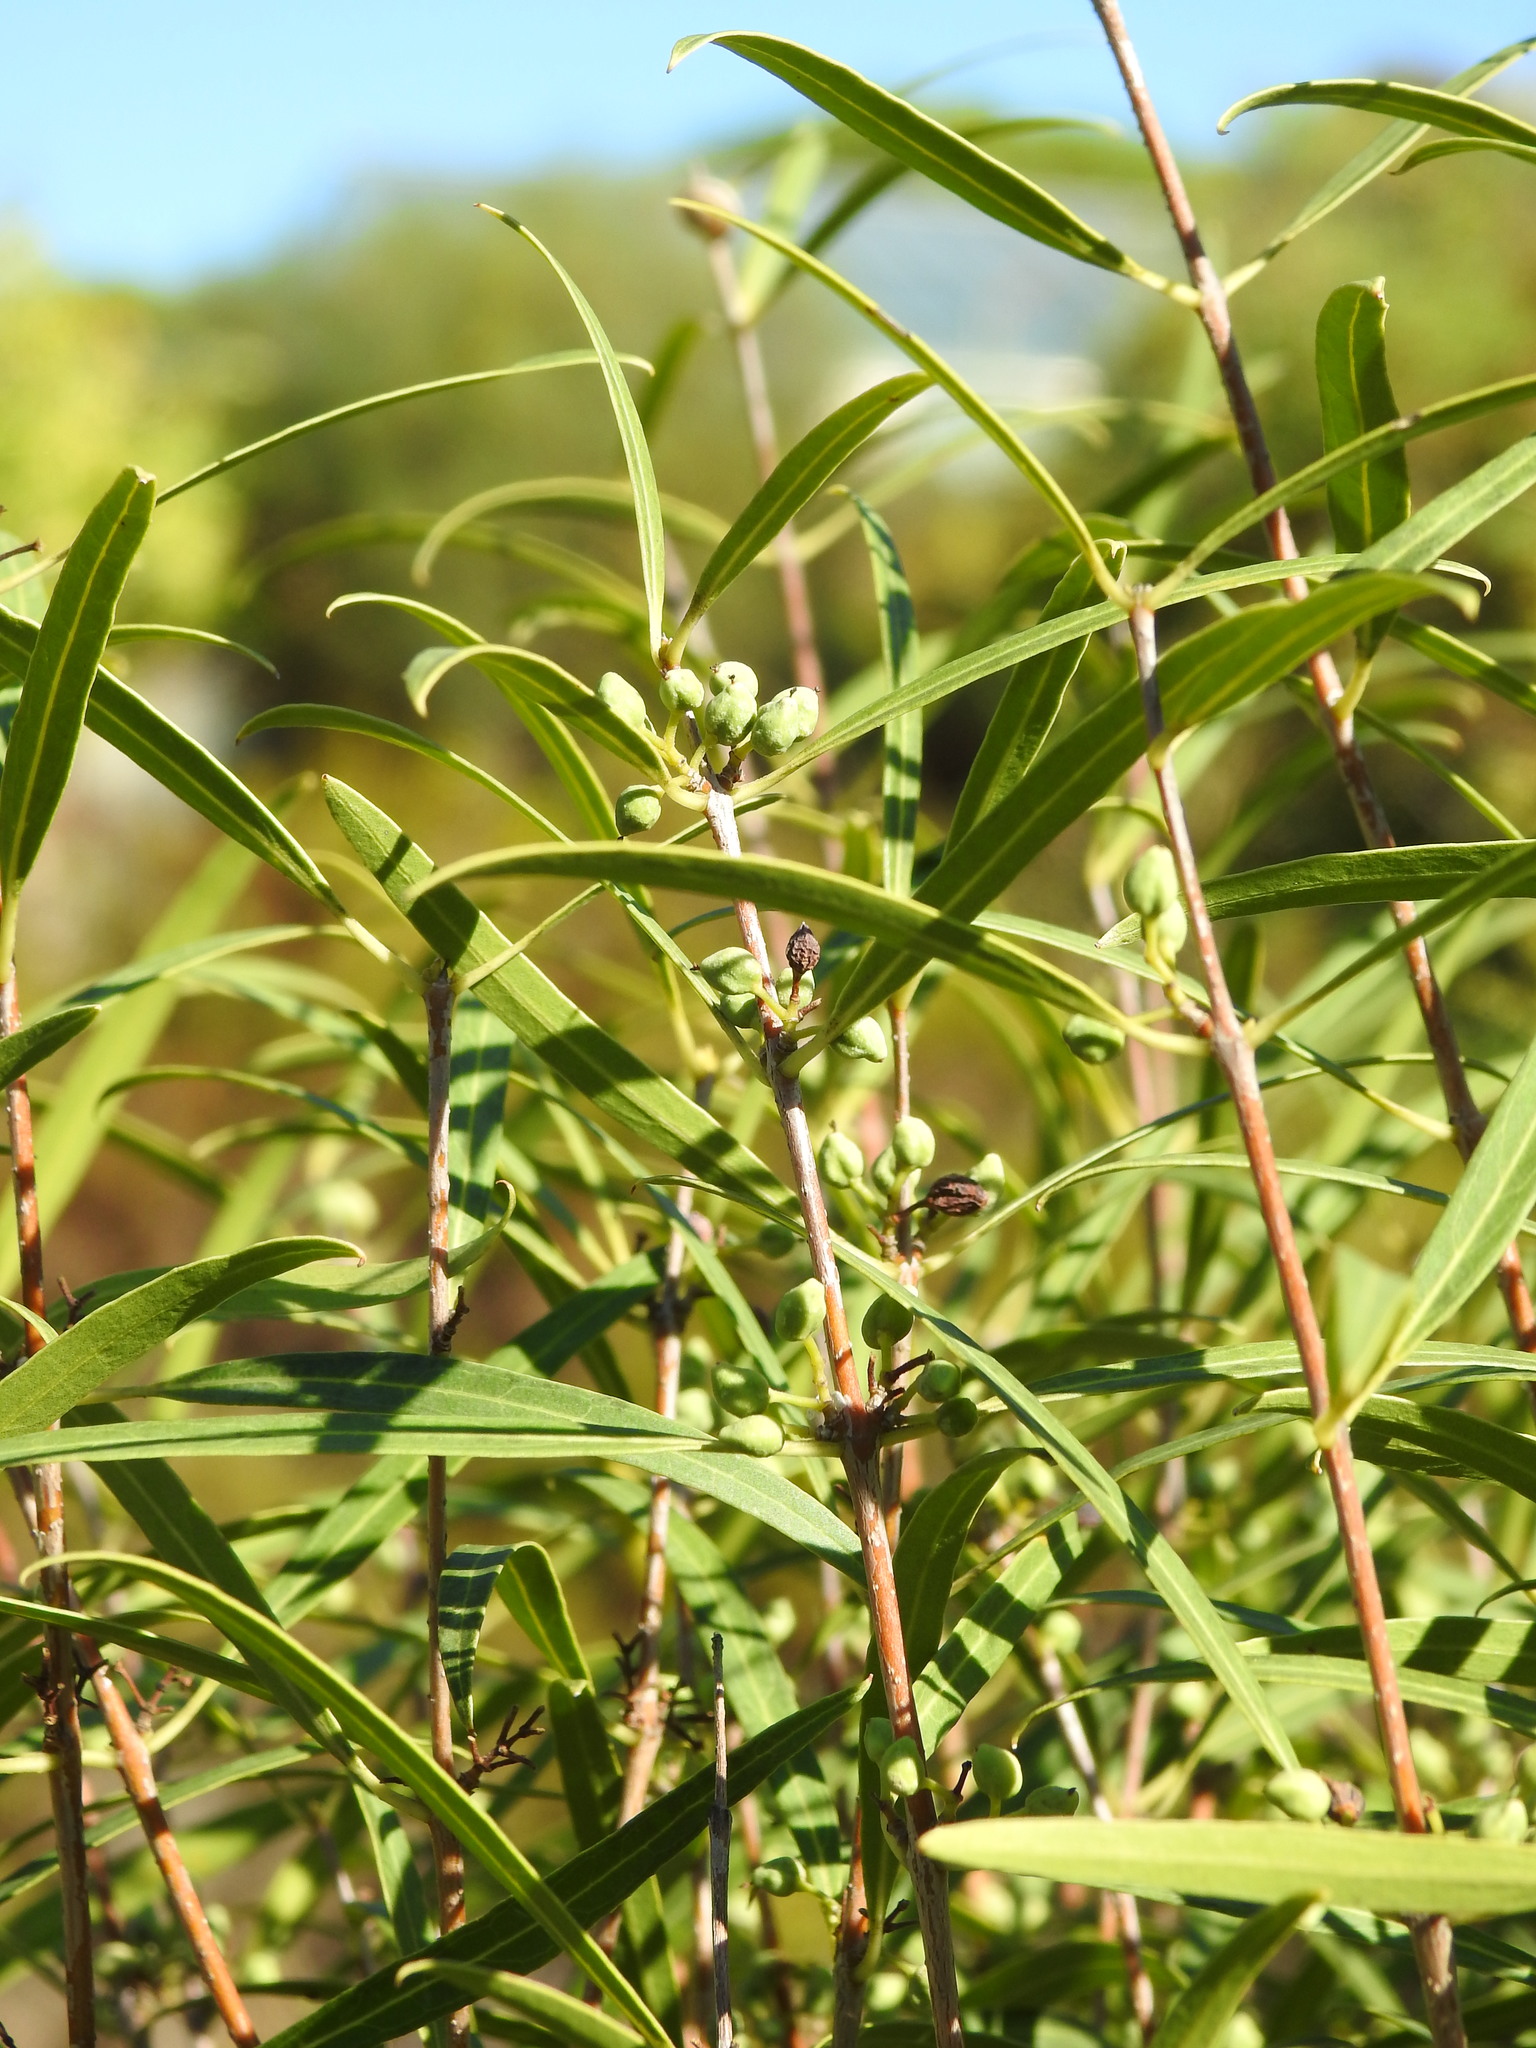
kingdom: Plantae
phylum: Tracheophyta
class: Magnoliopsida
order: Lamiales
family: Oleaceae
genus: Phillyrea
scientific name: Phillyrea angustifolia
